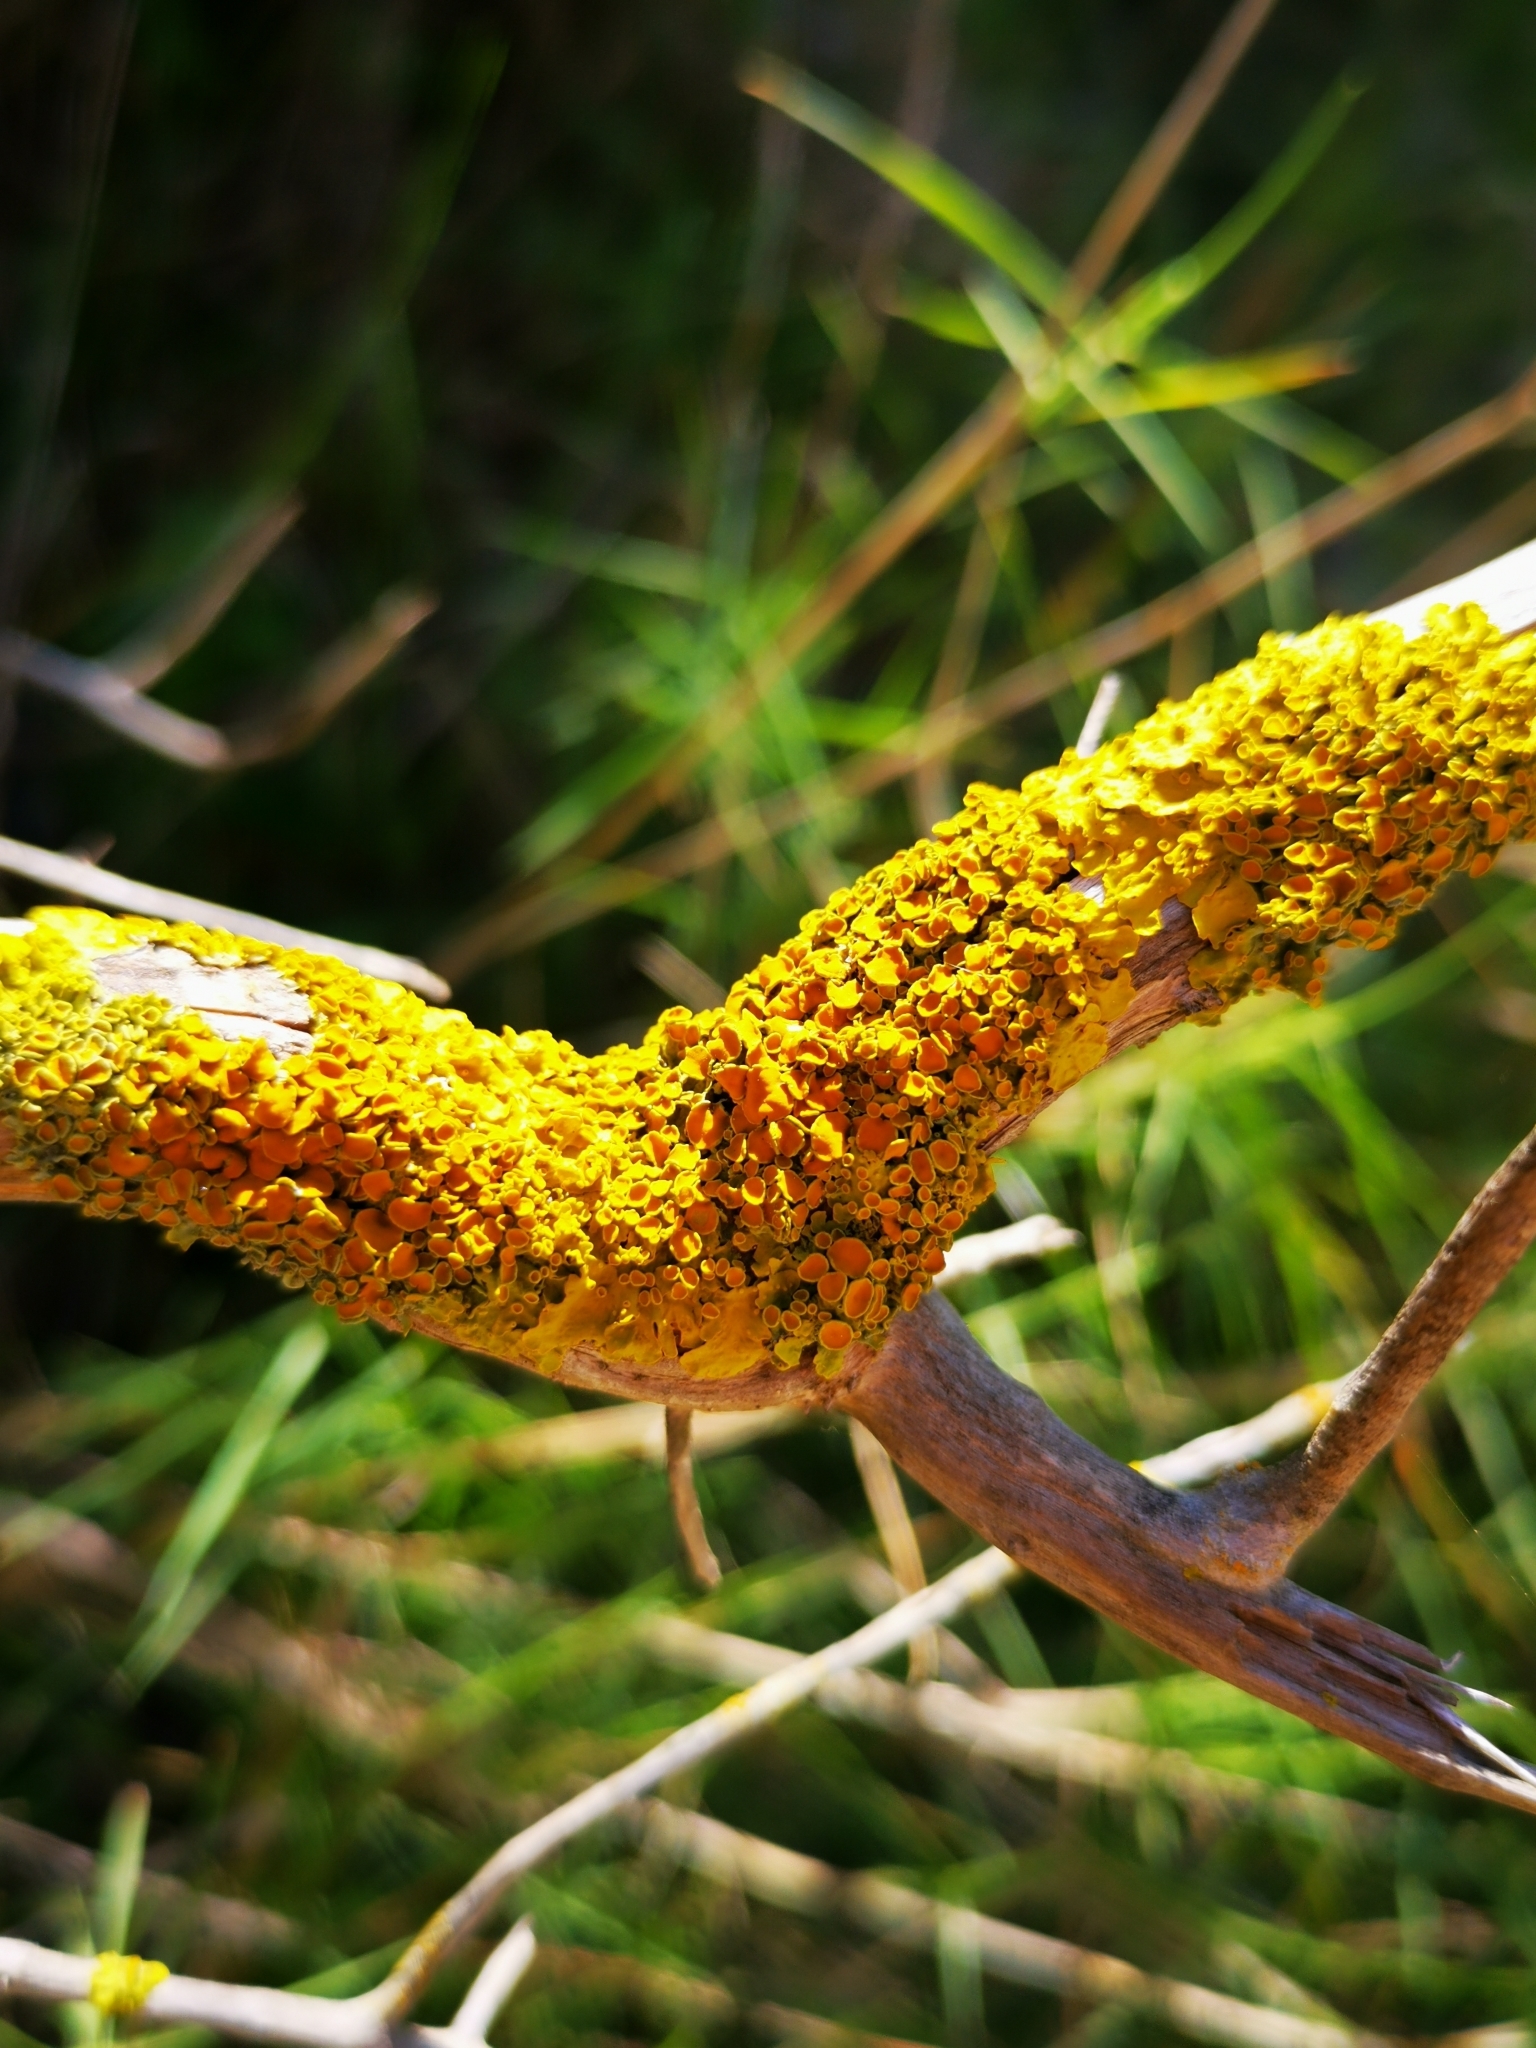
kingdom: Fungi
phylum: Ascomycota
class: Lecanoromycetes
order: Teloschistales
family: Teloschistaceae
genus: Xanthoria
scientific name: Xanthoria parietina
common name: Common orange lichen
